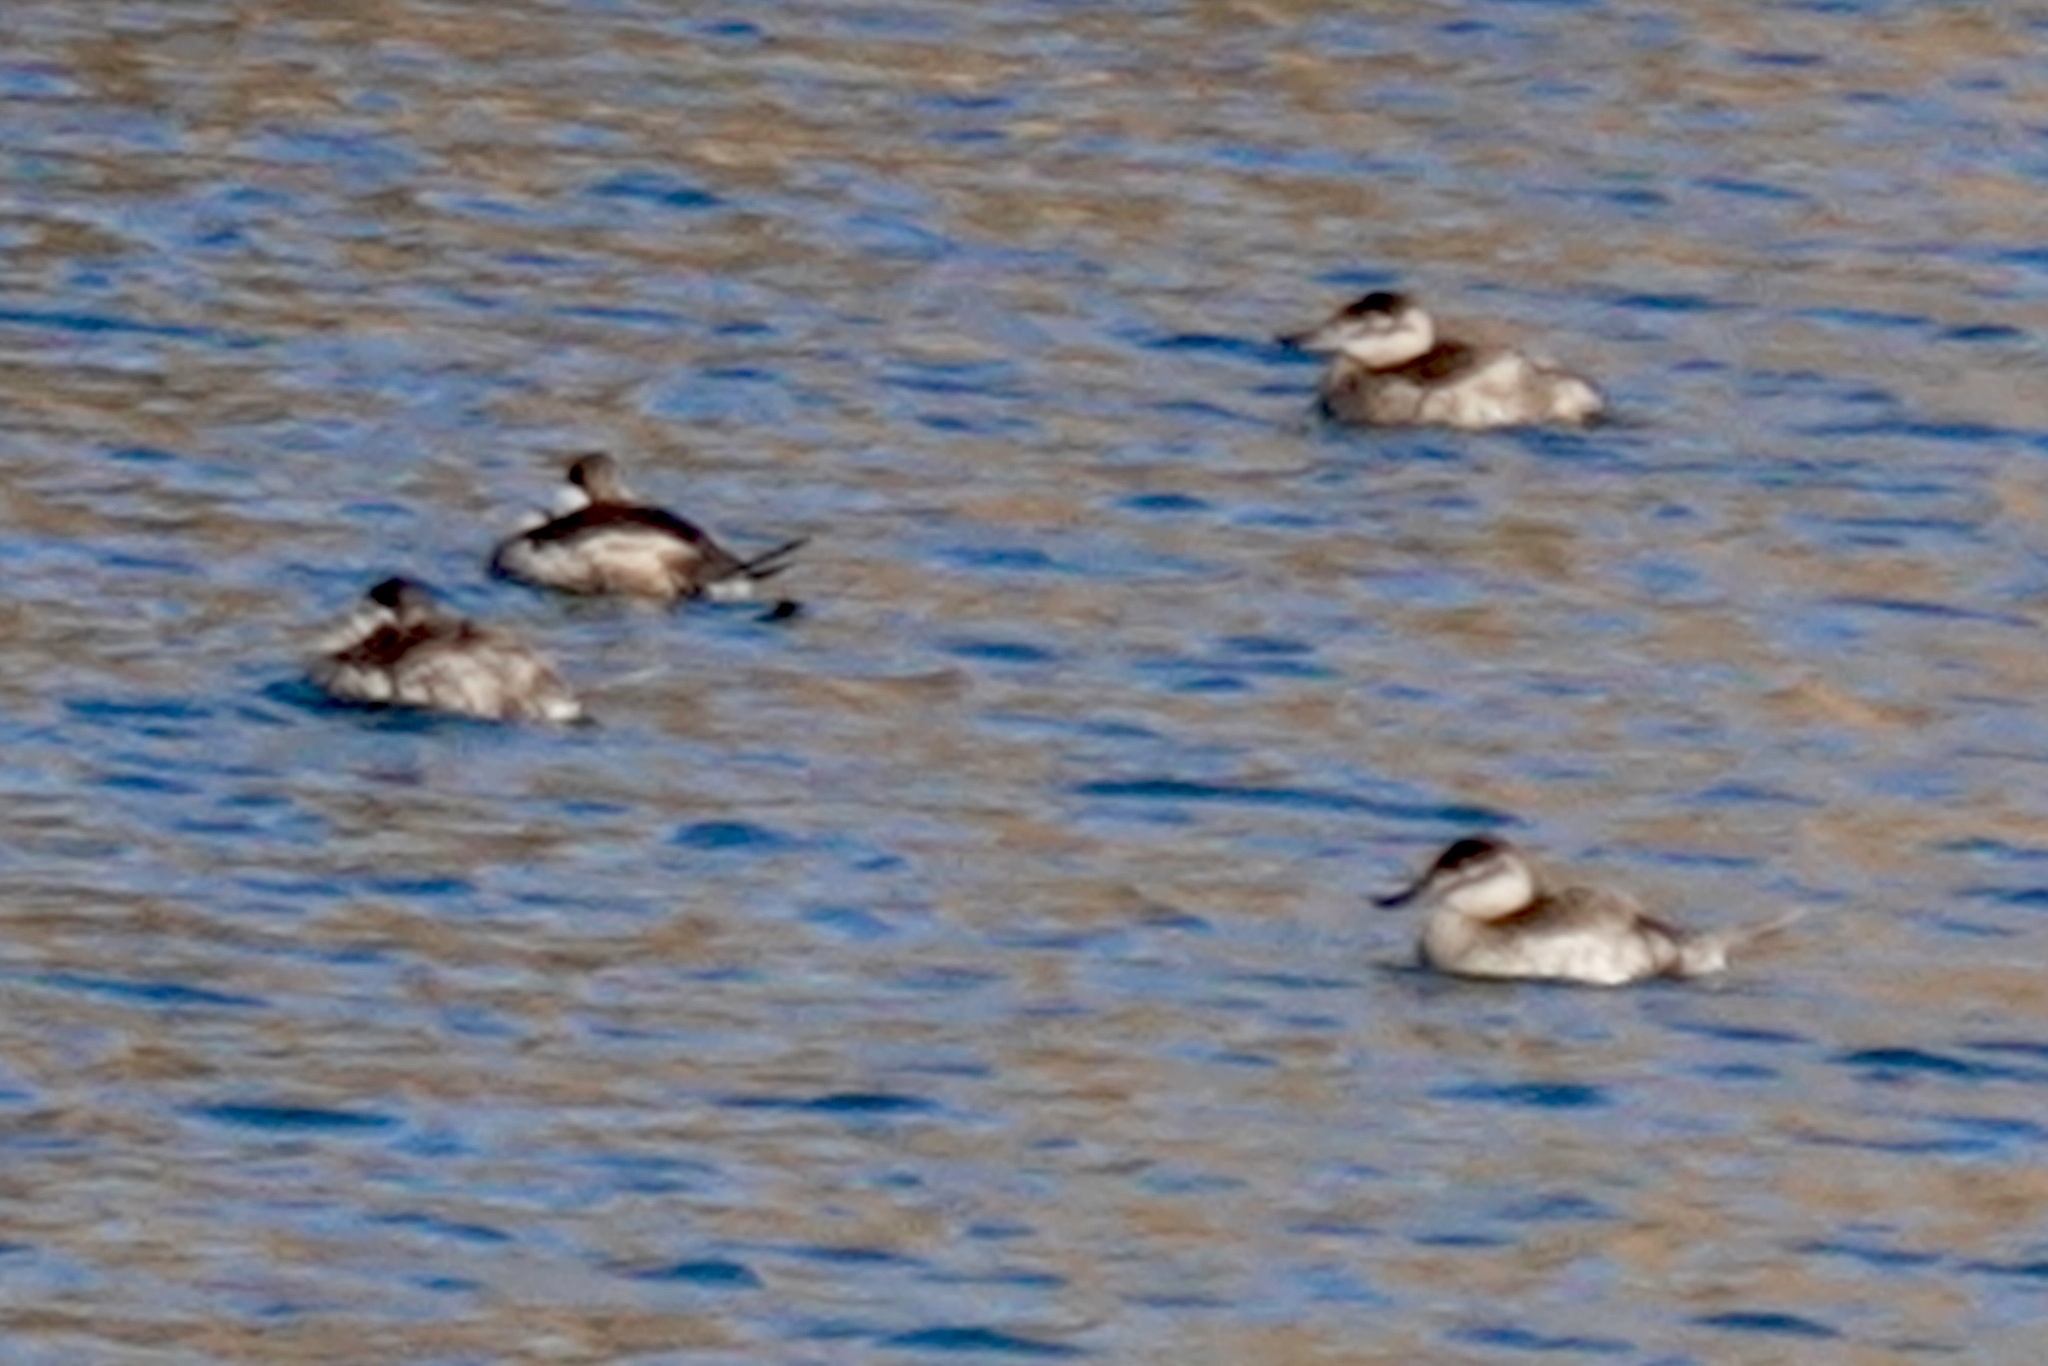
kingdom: Animalia
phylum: Chordata
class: Aves
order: Anseriformes
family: Anatidae
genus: Oxyura
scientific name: Oxyura jamaicensis
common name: Ruddy duck
